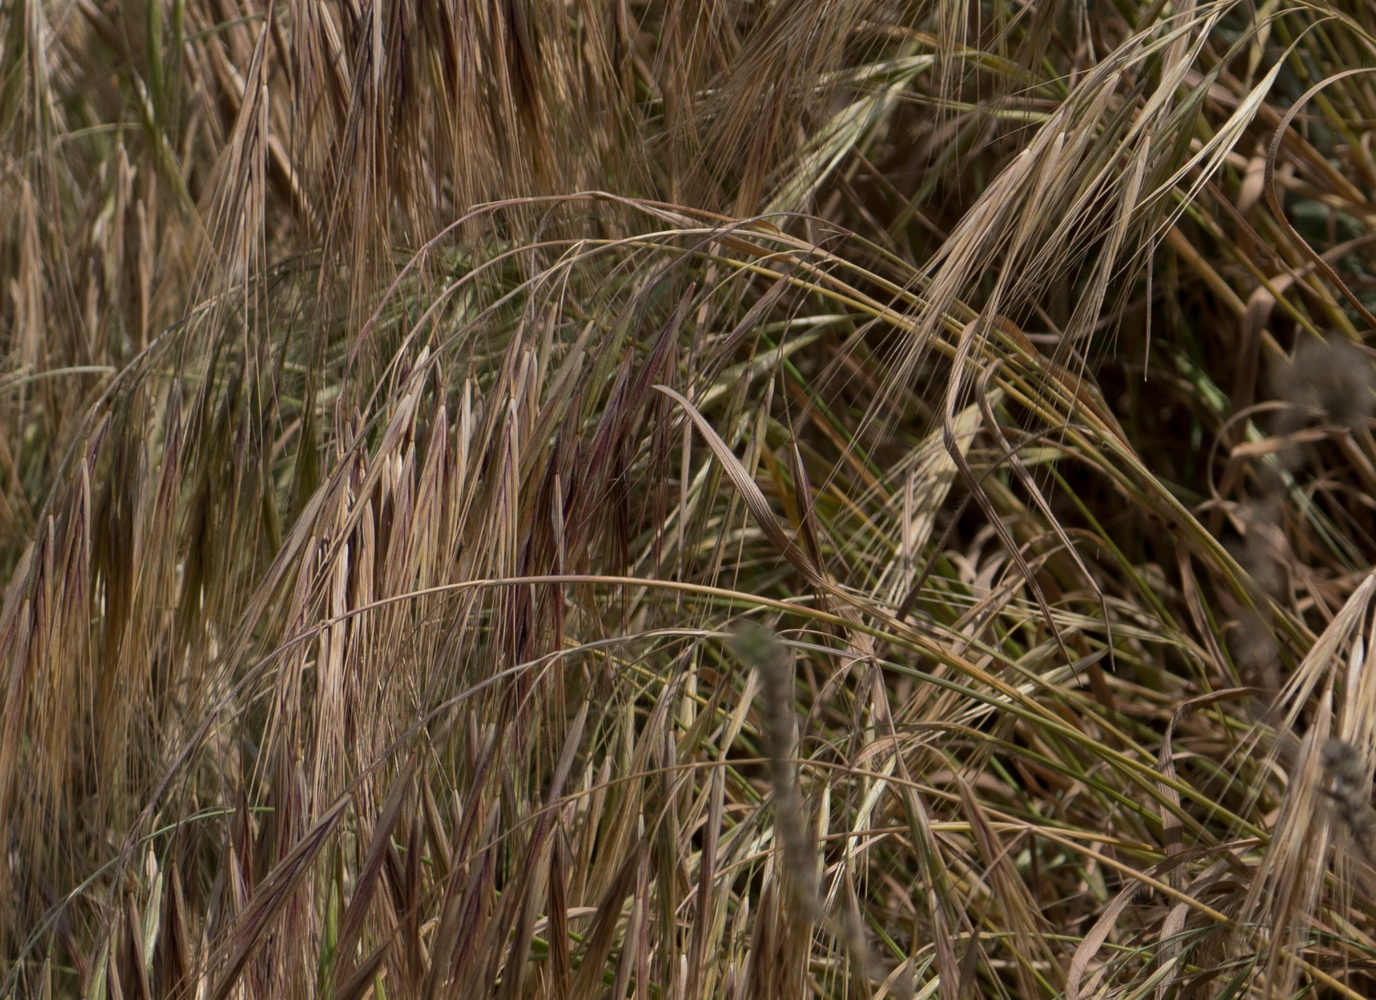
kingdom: Plantae
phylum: Tracheophyta
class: Liliopsida
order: Poales
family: Poaceae
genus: Bromus
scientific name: Bromus diandrus
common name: Ripgut brome
